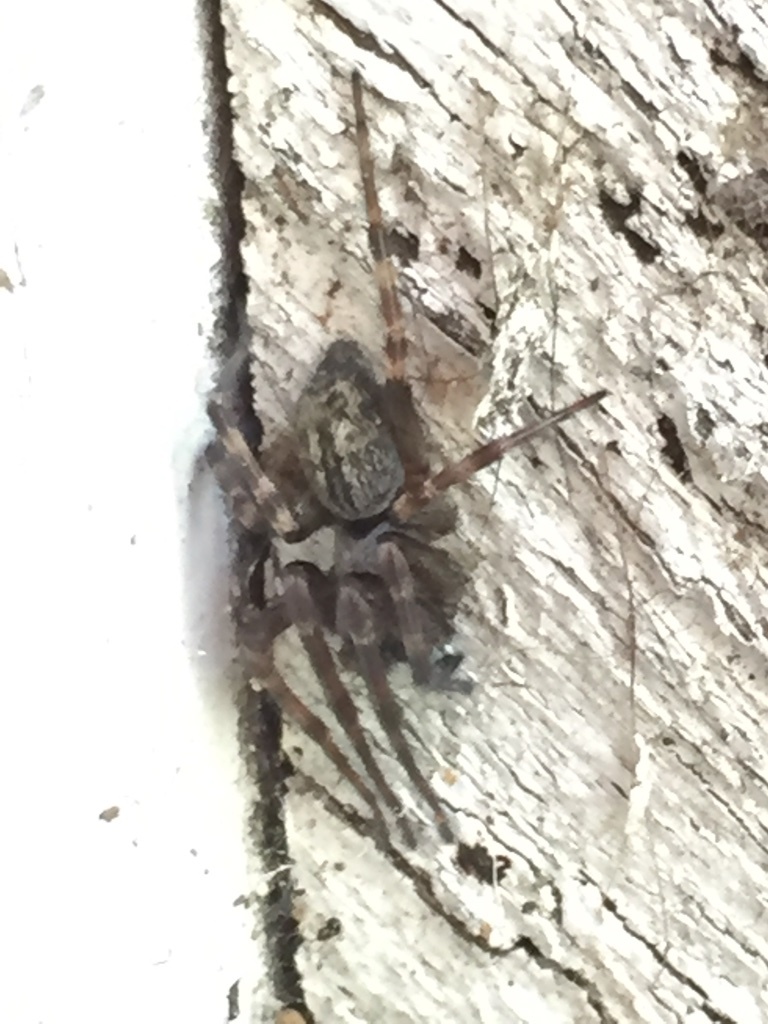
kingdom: Animalia
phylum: Arthropoda
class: Arachnida
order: Araneae
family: Desidae
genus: Badumna
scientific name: Badumna longinqua
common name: Gray house spider
